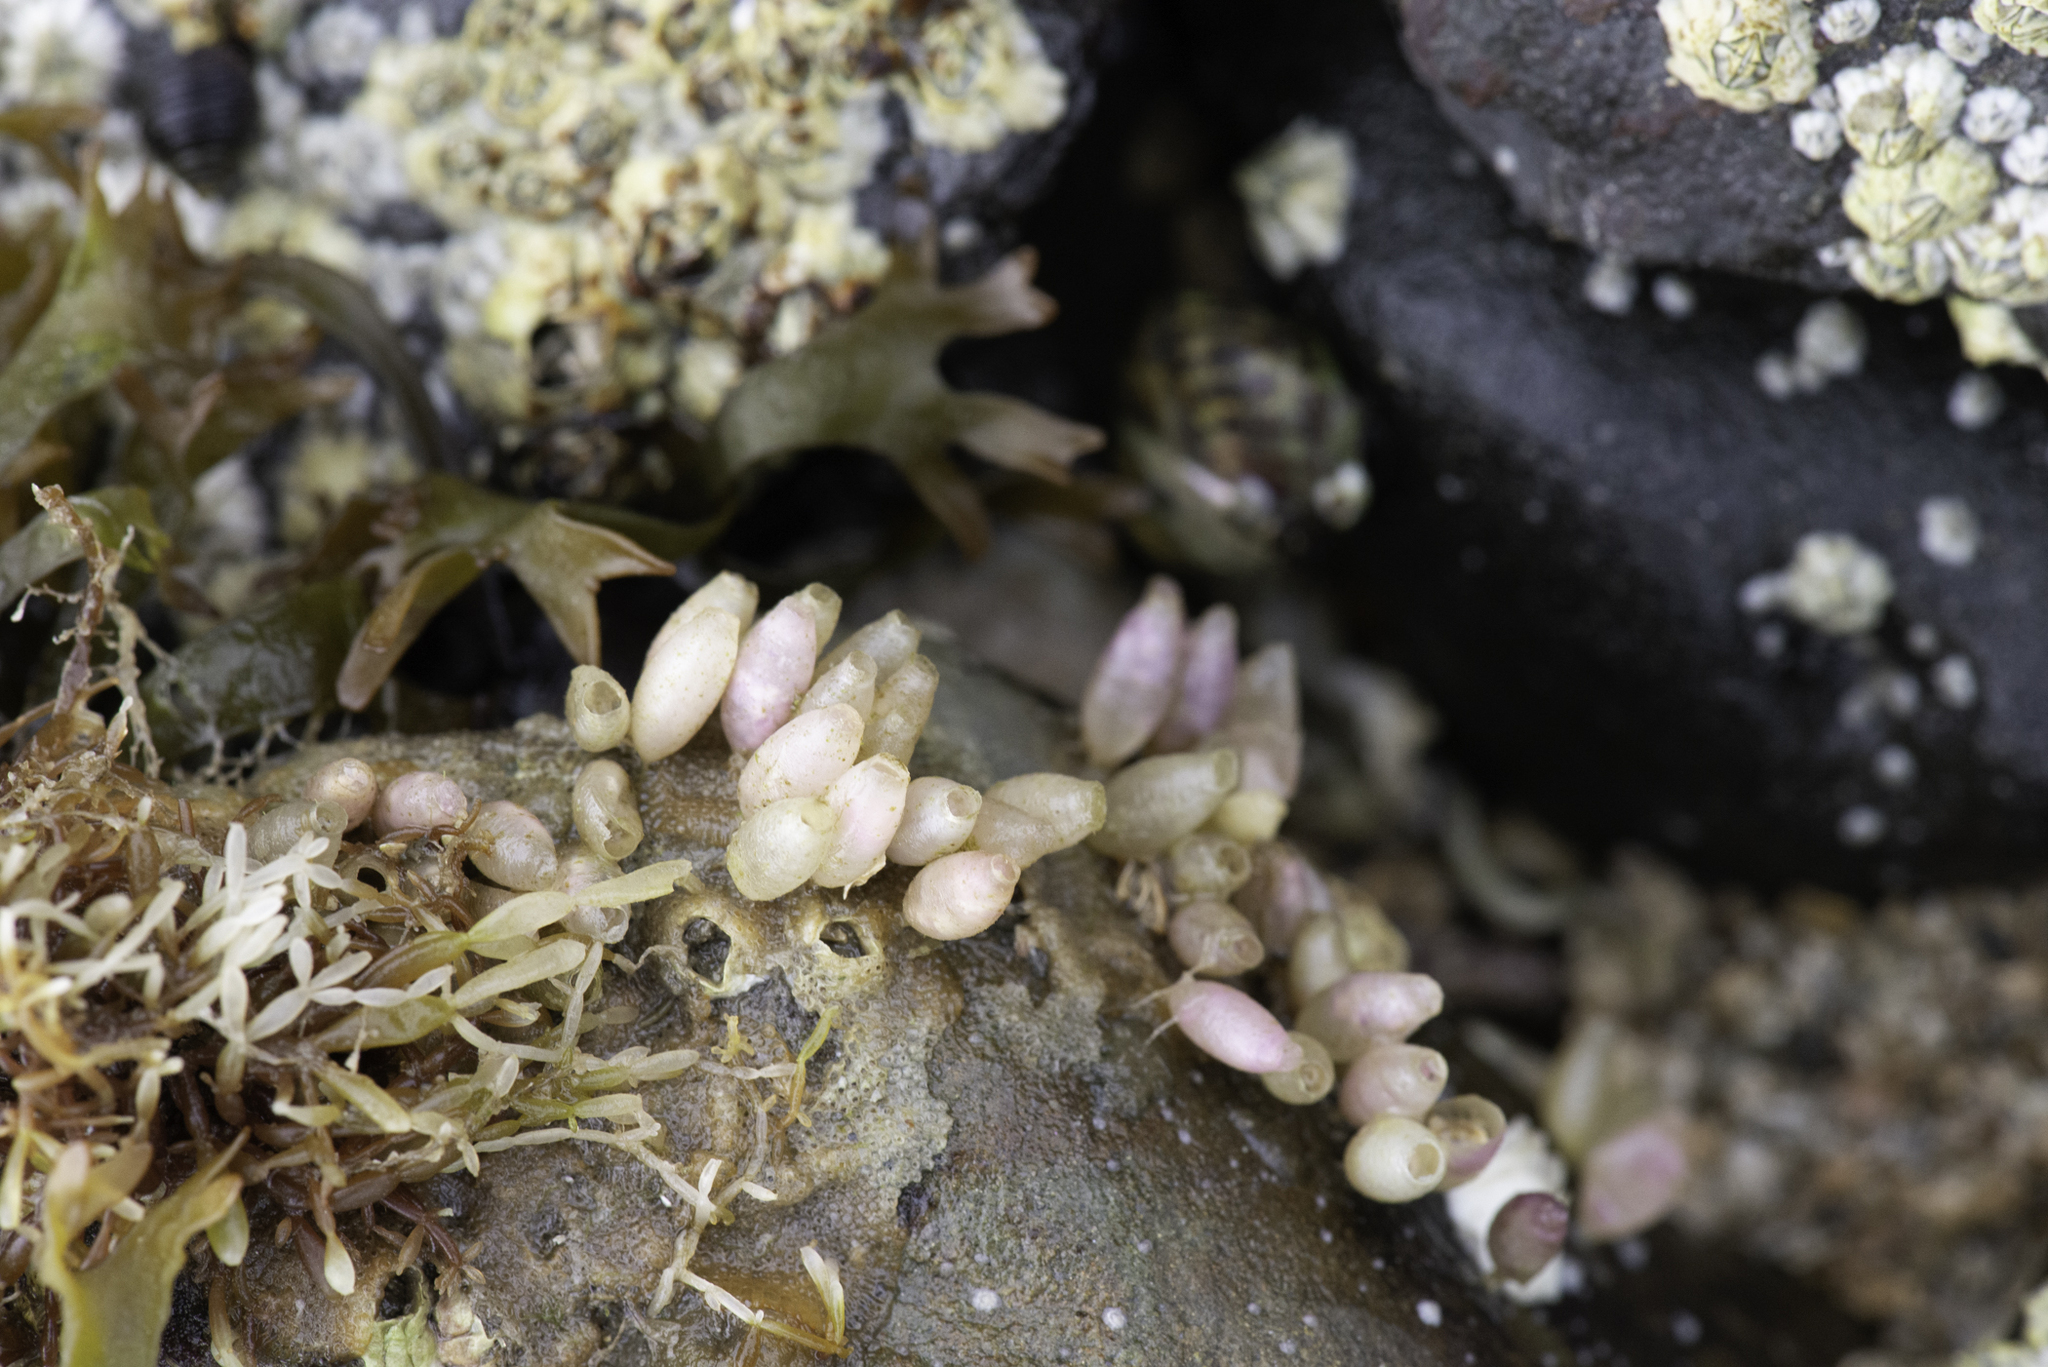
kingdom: Animalia
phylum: Mollusca
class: Gastropoda
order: Neogastropoda
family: Muricidae
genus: Nucella
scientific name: Nucella lapillus
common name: Dog whelk
